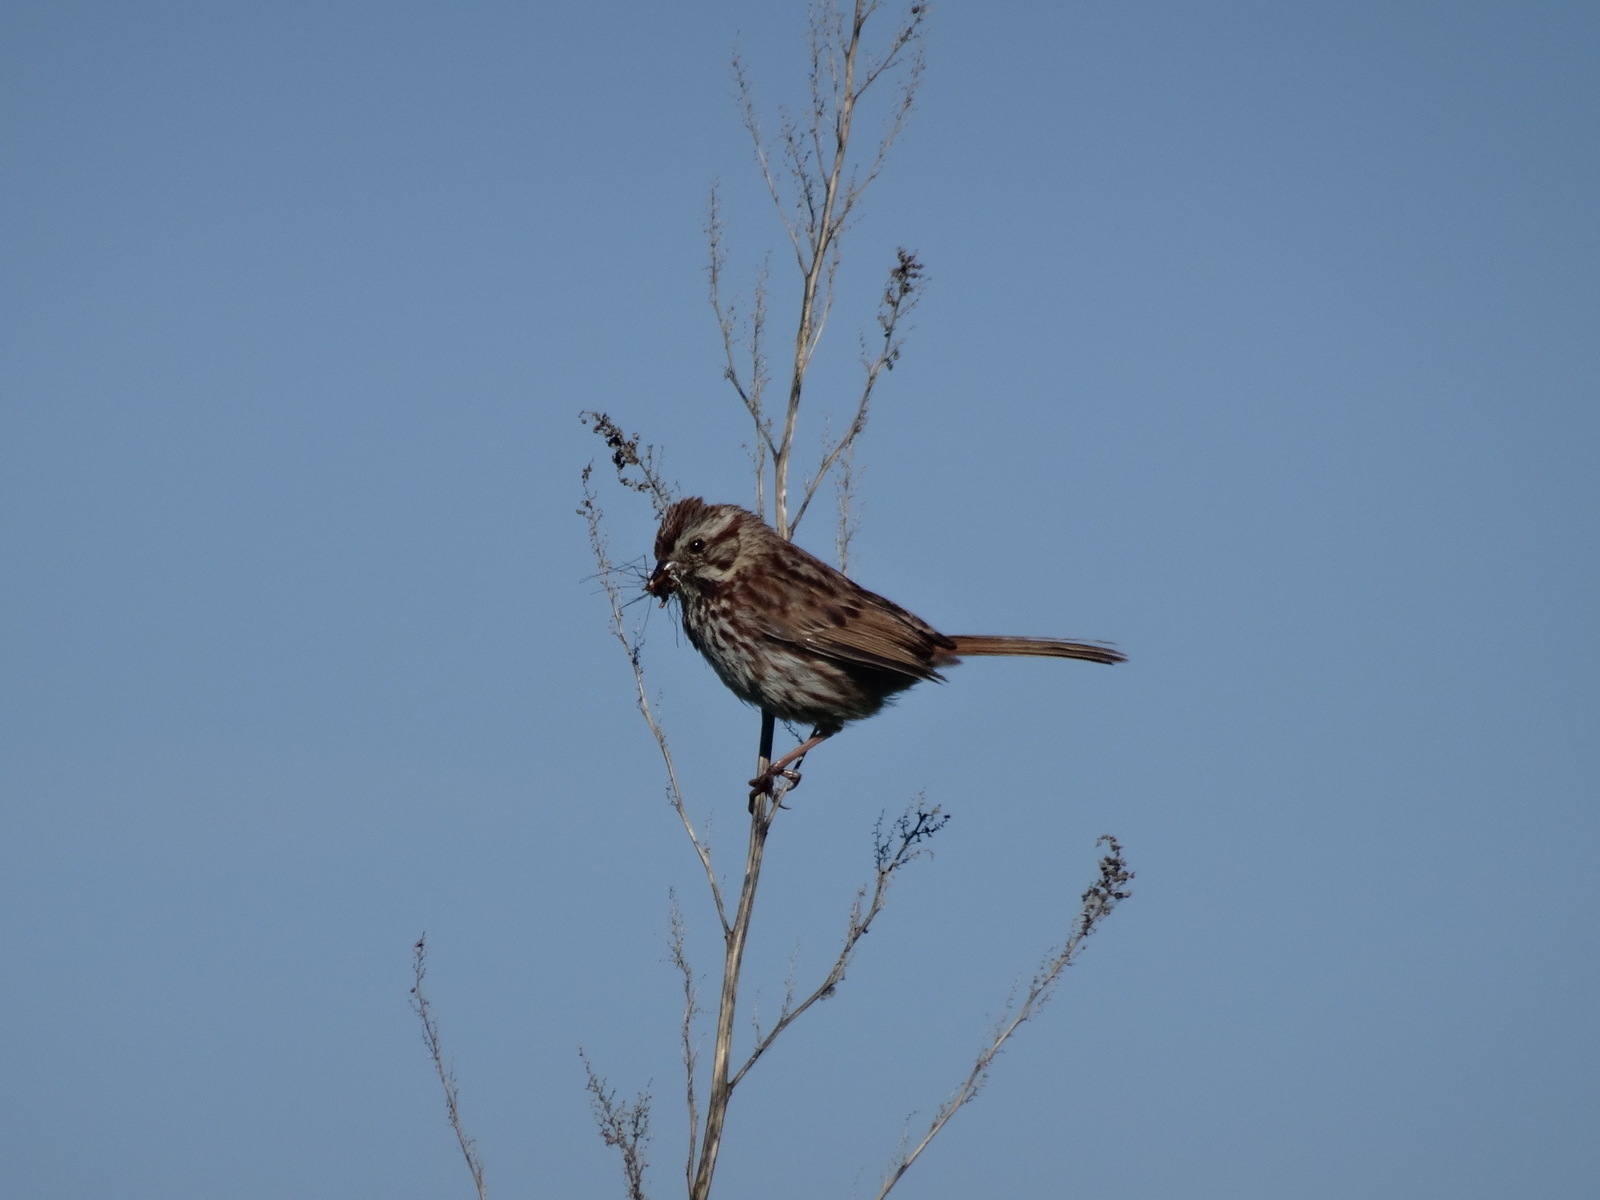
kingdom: Animalia
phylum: Chordata
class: Aves
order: Passeriformes
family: Passerellidae
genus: Melospiza
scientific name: Melospiza melodia
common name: Song sparrow
